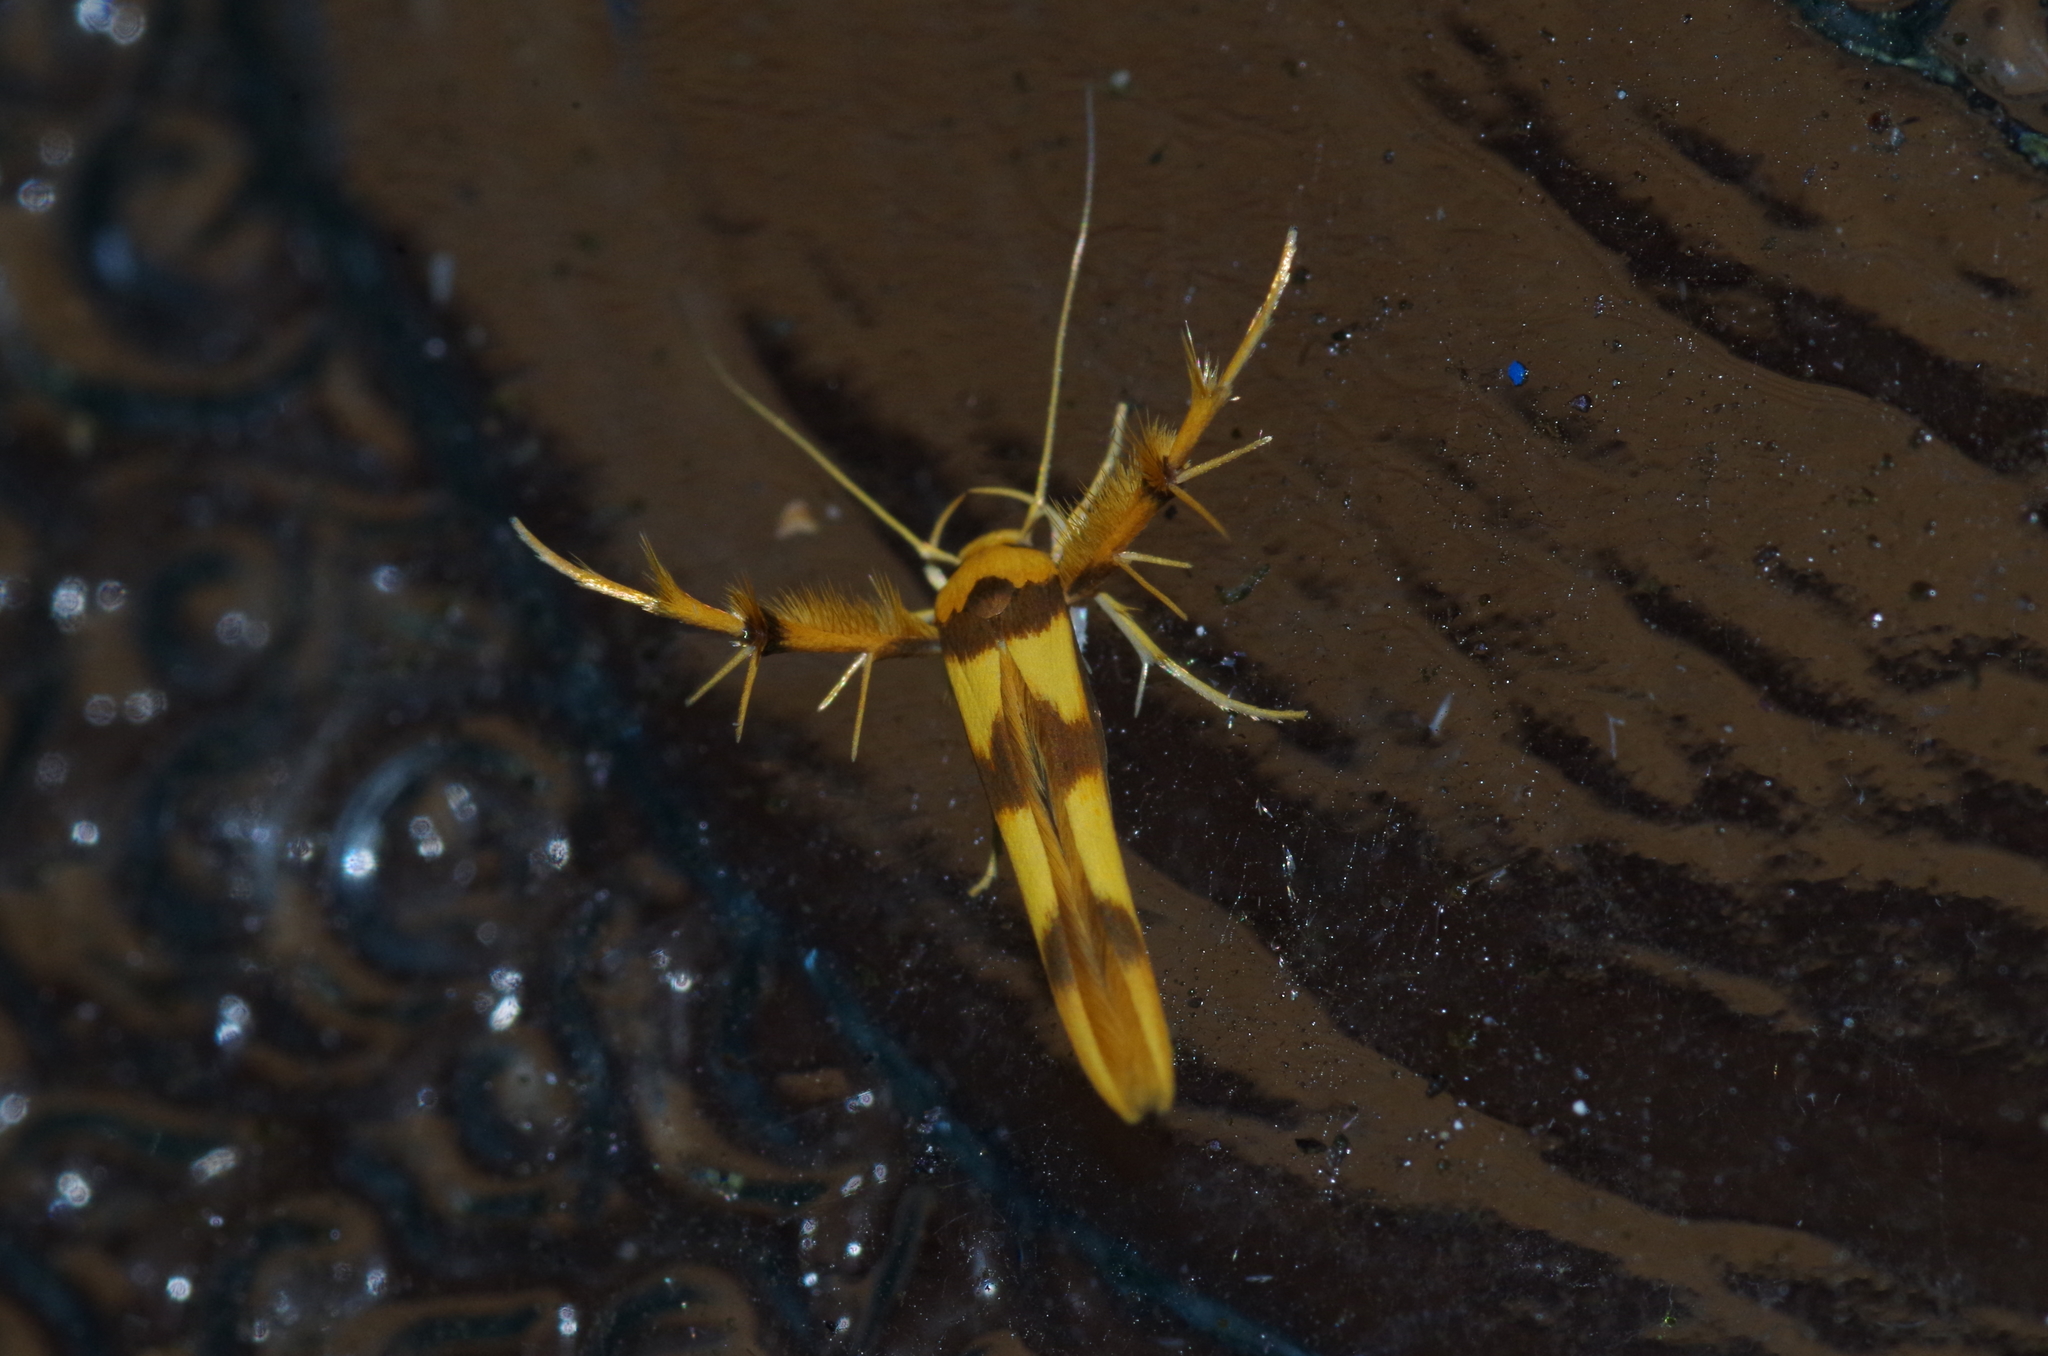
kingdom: Animalia
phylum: Arthropoda
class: Insecta
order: Lepidoptera
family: Stathmopodidae
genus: Stathmopoda
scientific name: Stathmopoda fusciumeraris
